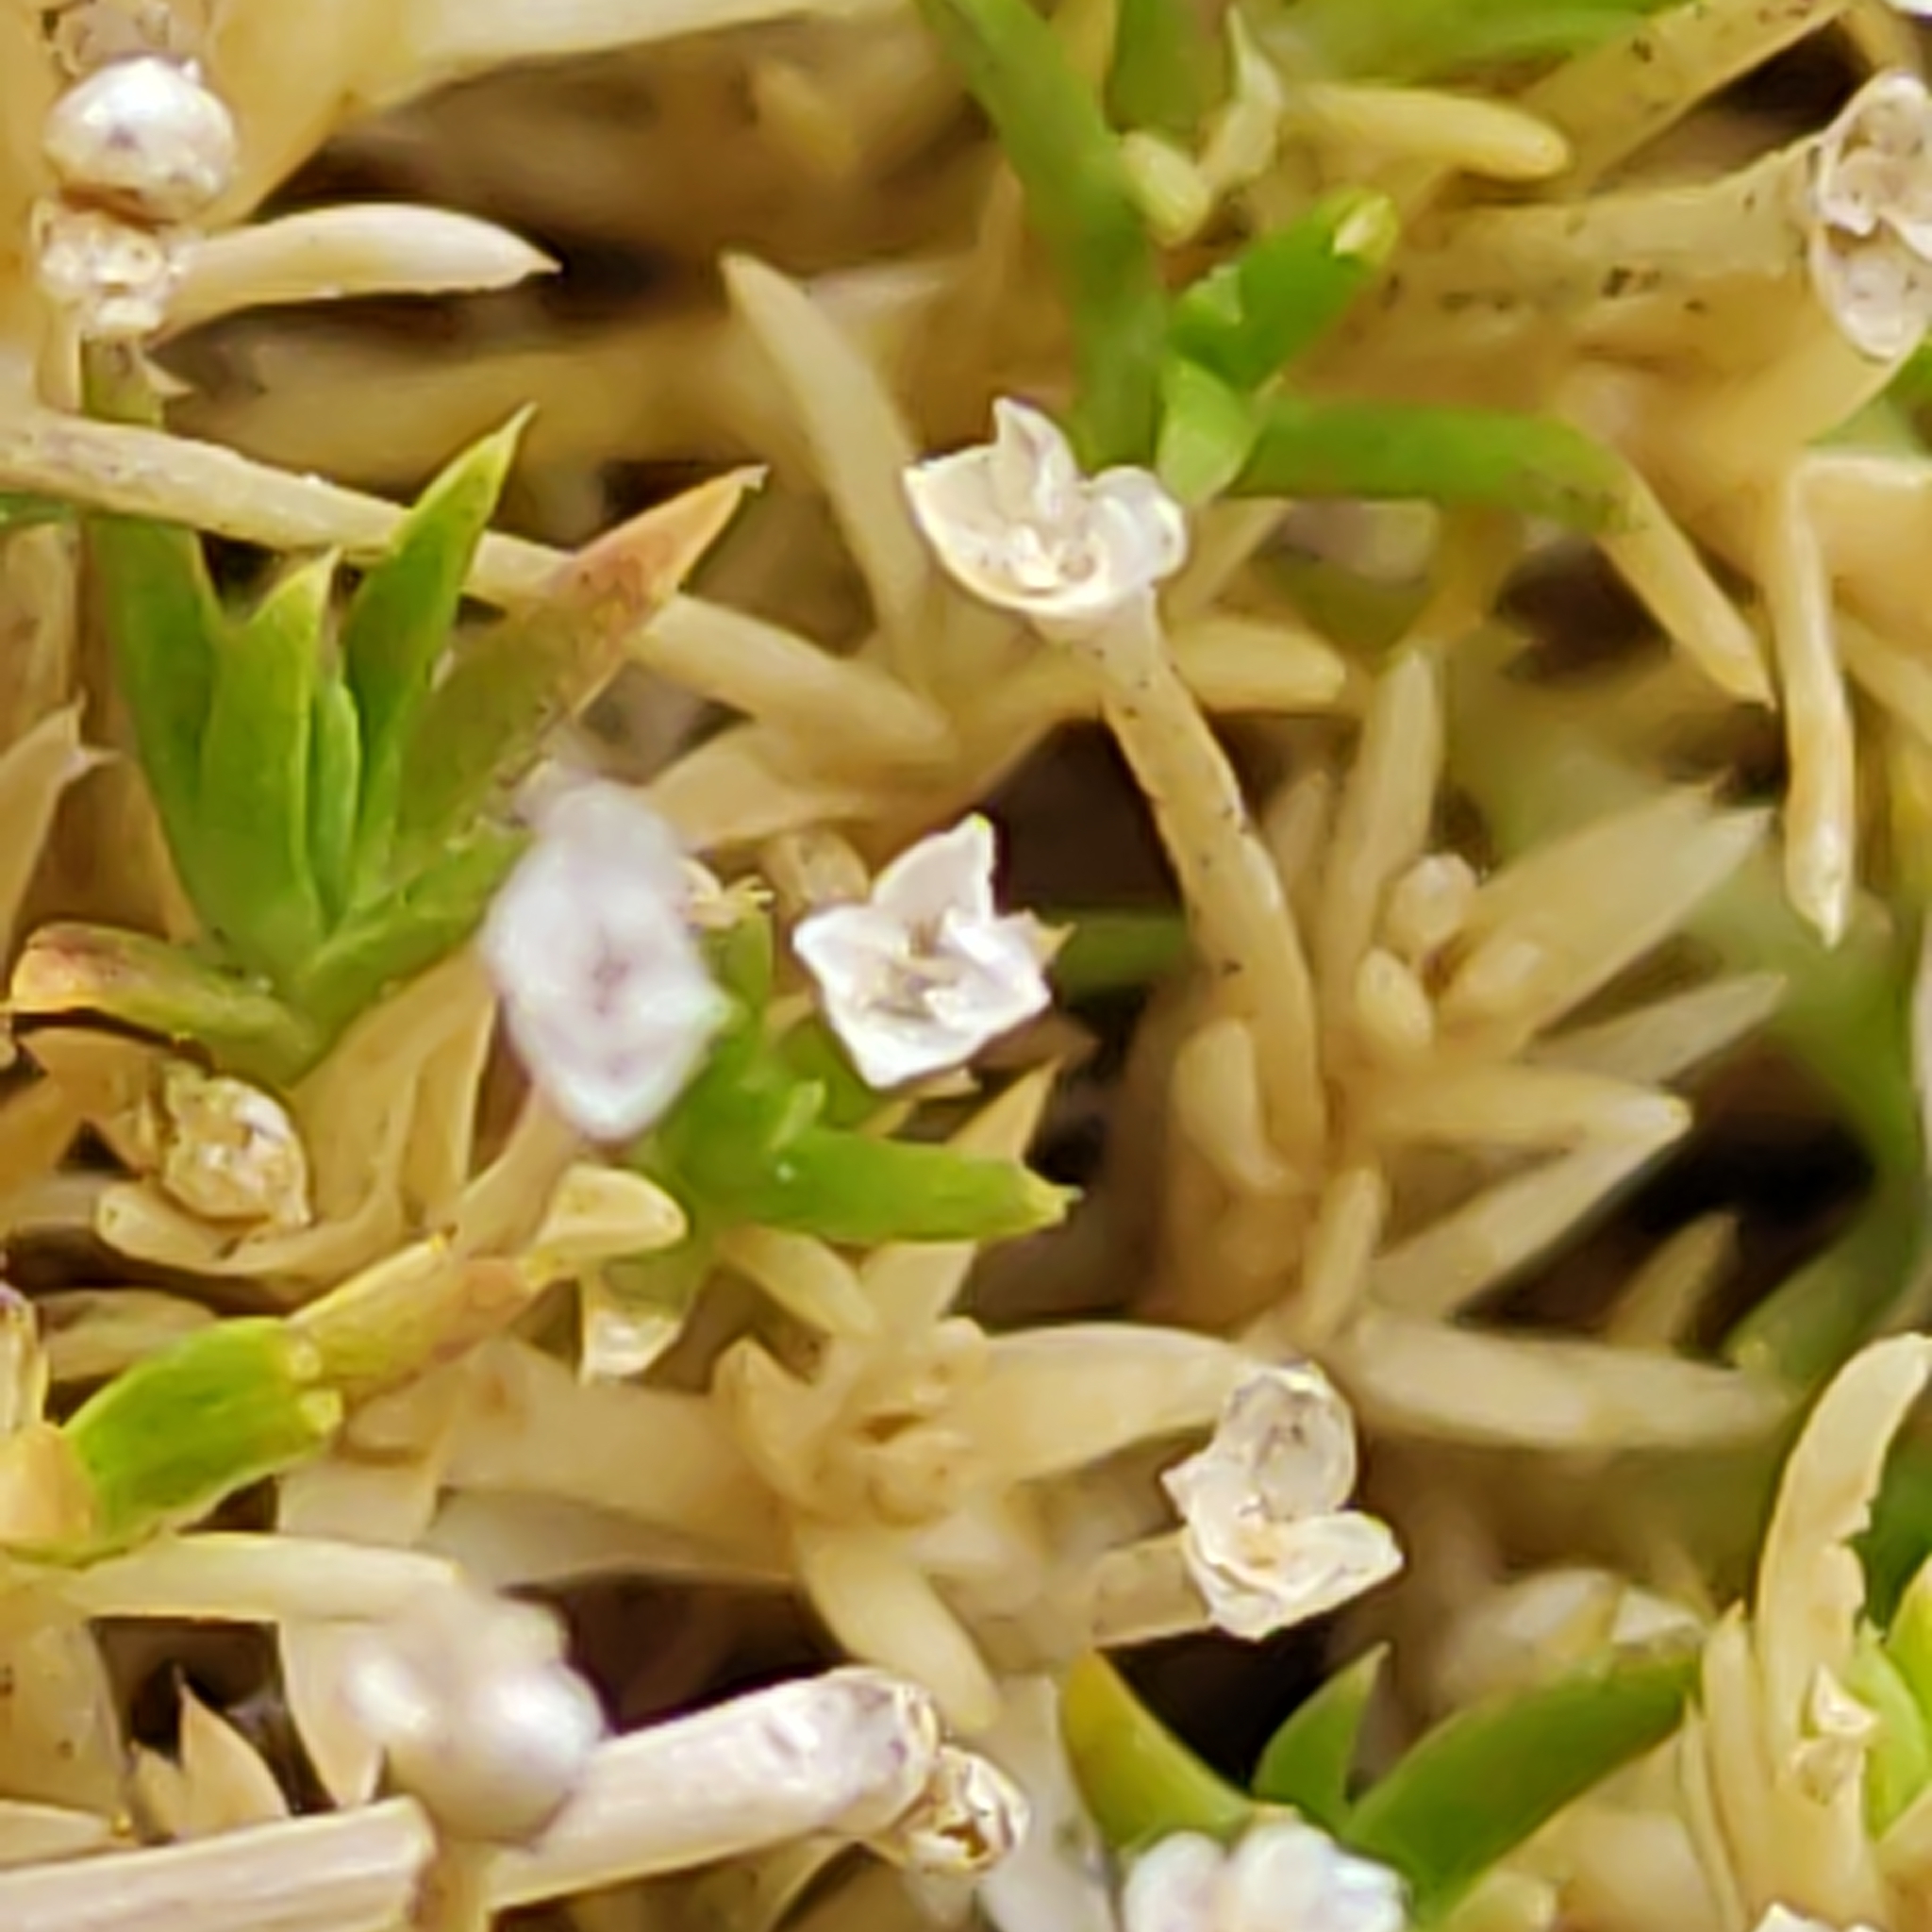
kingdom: Plantae
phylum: Tracheophyta
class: Magnoliopsida
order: Caryophyllales
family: Caryophyllaceae
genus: Scleranthus
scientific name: Scleranthus brockiei
